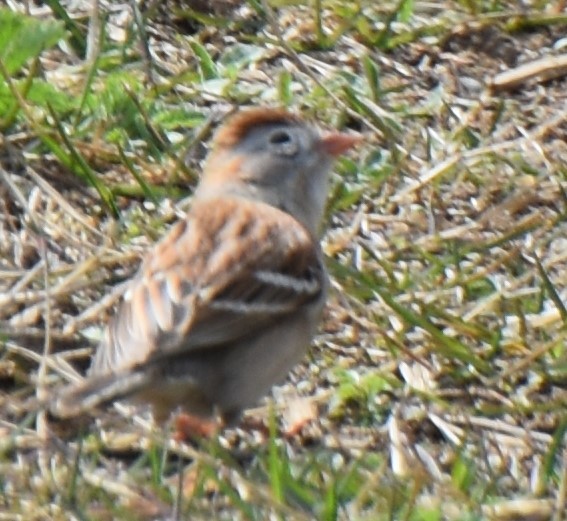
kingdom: Animalia
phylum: Chordata
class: Aves
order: Passeriformes
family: Passerellidae
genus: Spizella
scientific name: Spizella pusilla
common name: Field sparrow
